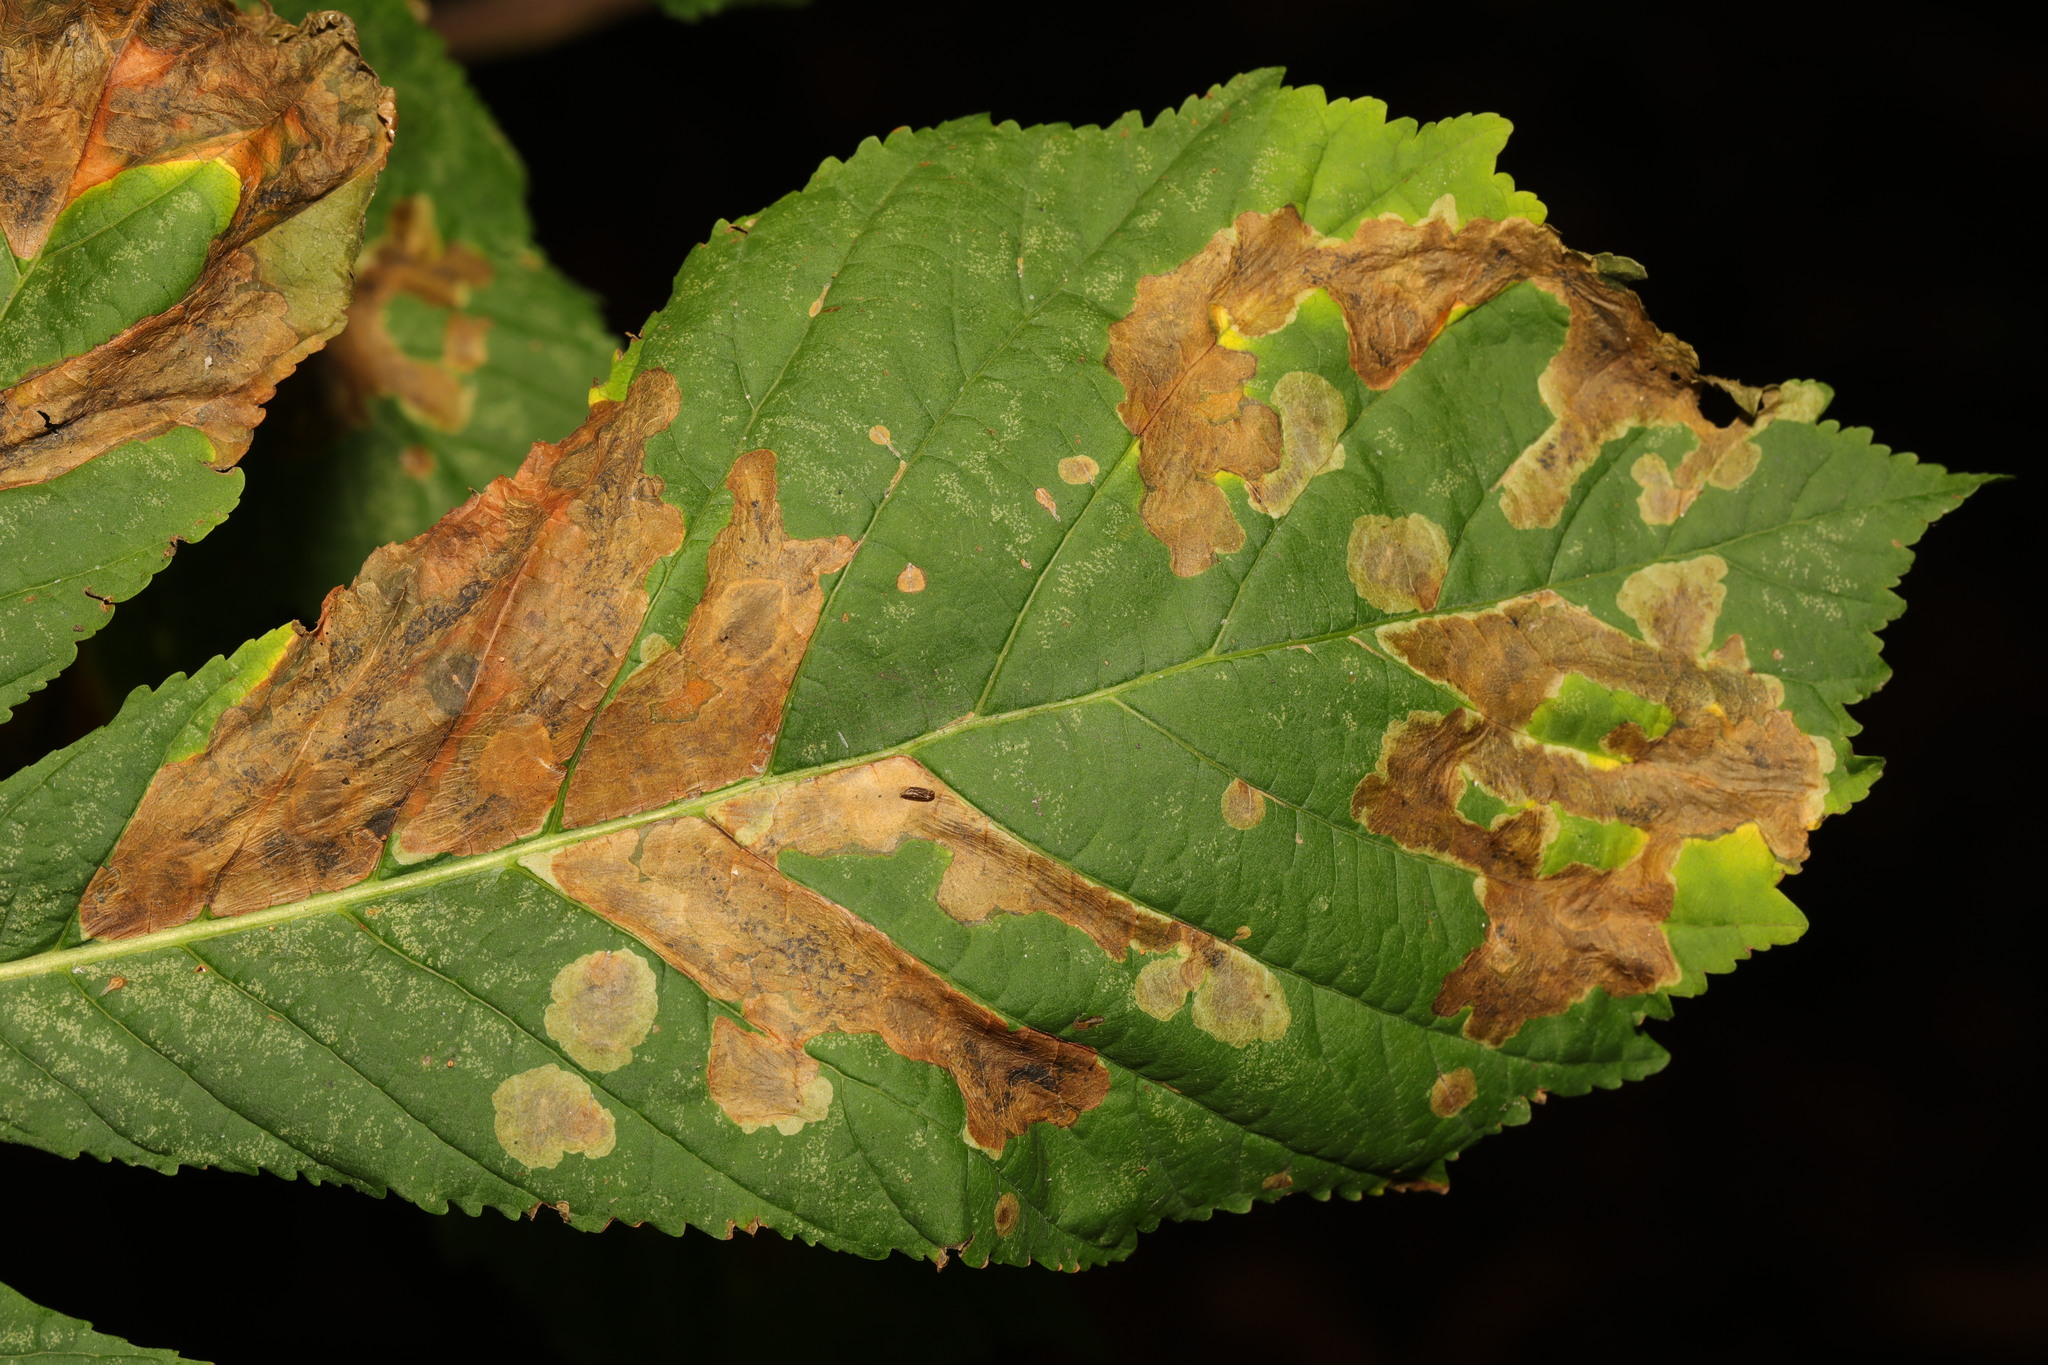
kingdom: Animalia
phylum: Arthropoda
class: Insecta
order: Lepidoptera
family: Gracillariidae
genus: Cameraria
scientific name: Cameraria ohridella
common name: Horse-chestnut leaf-miner
